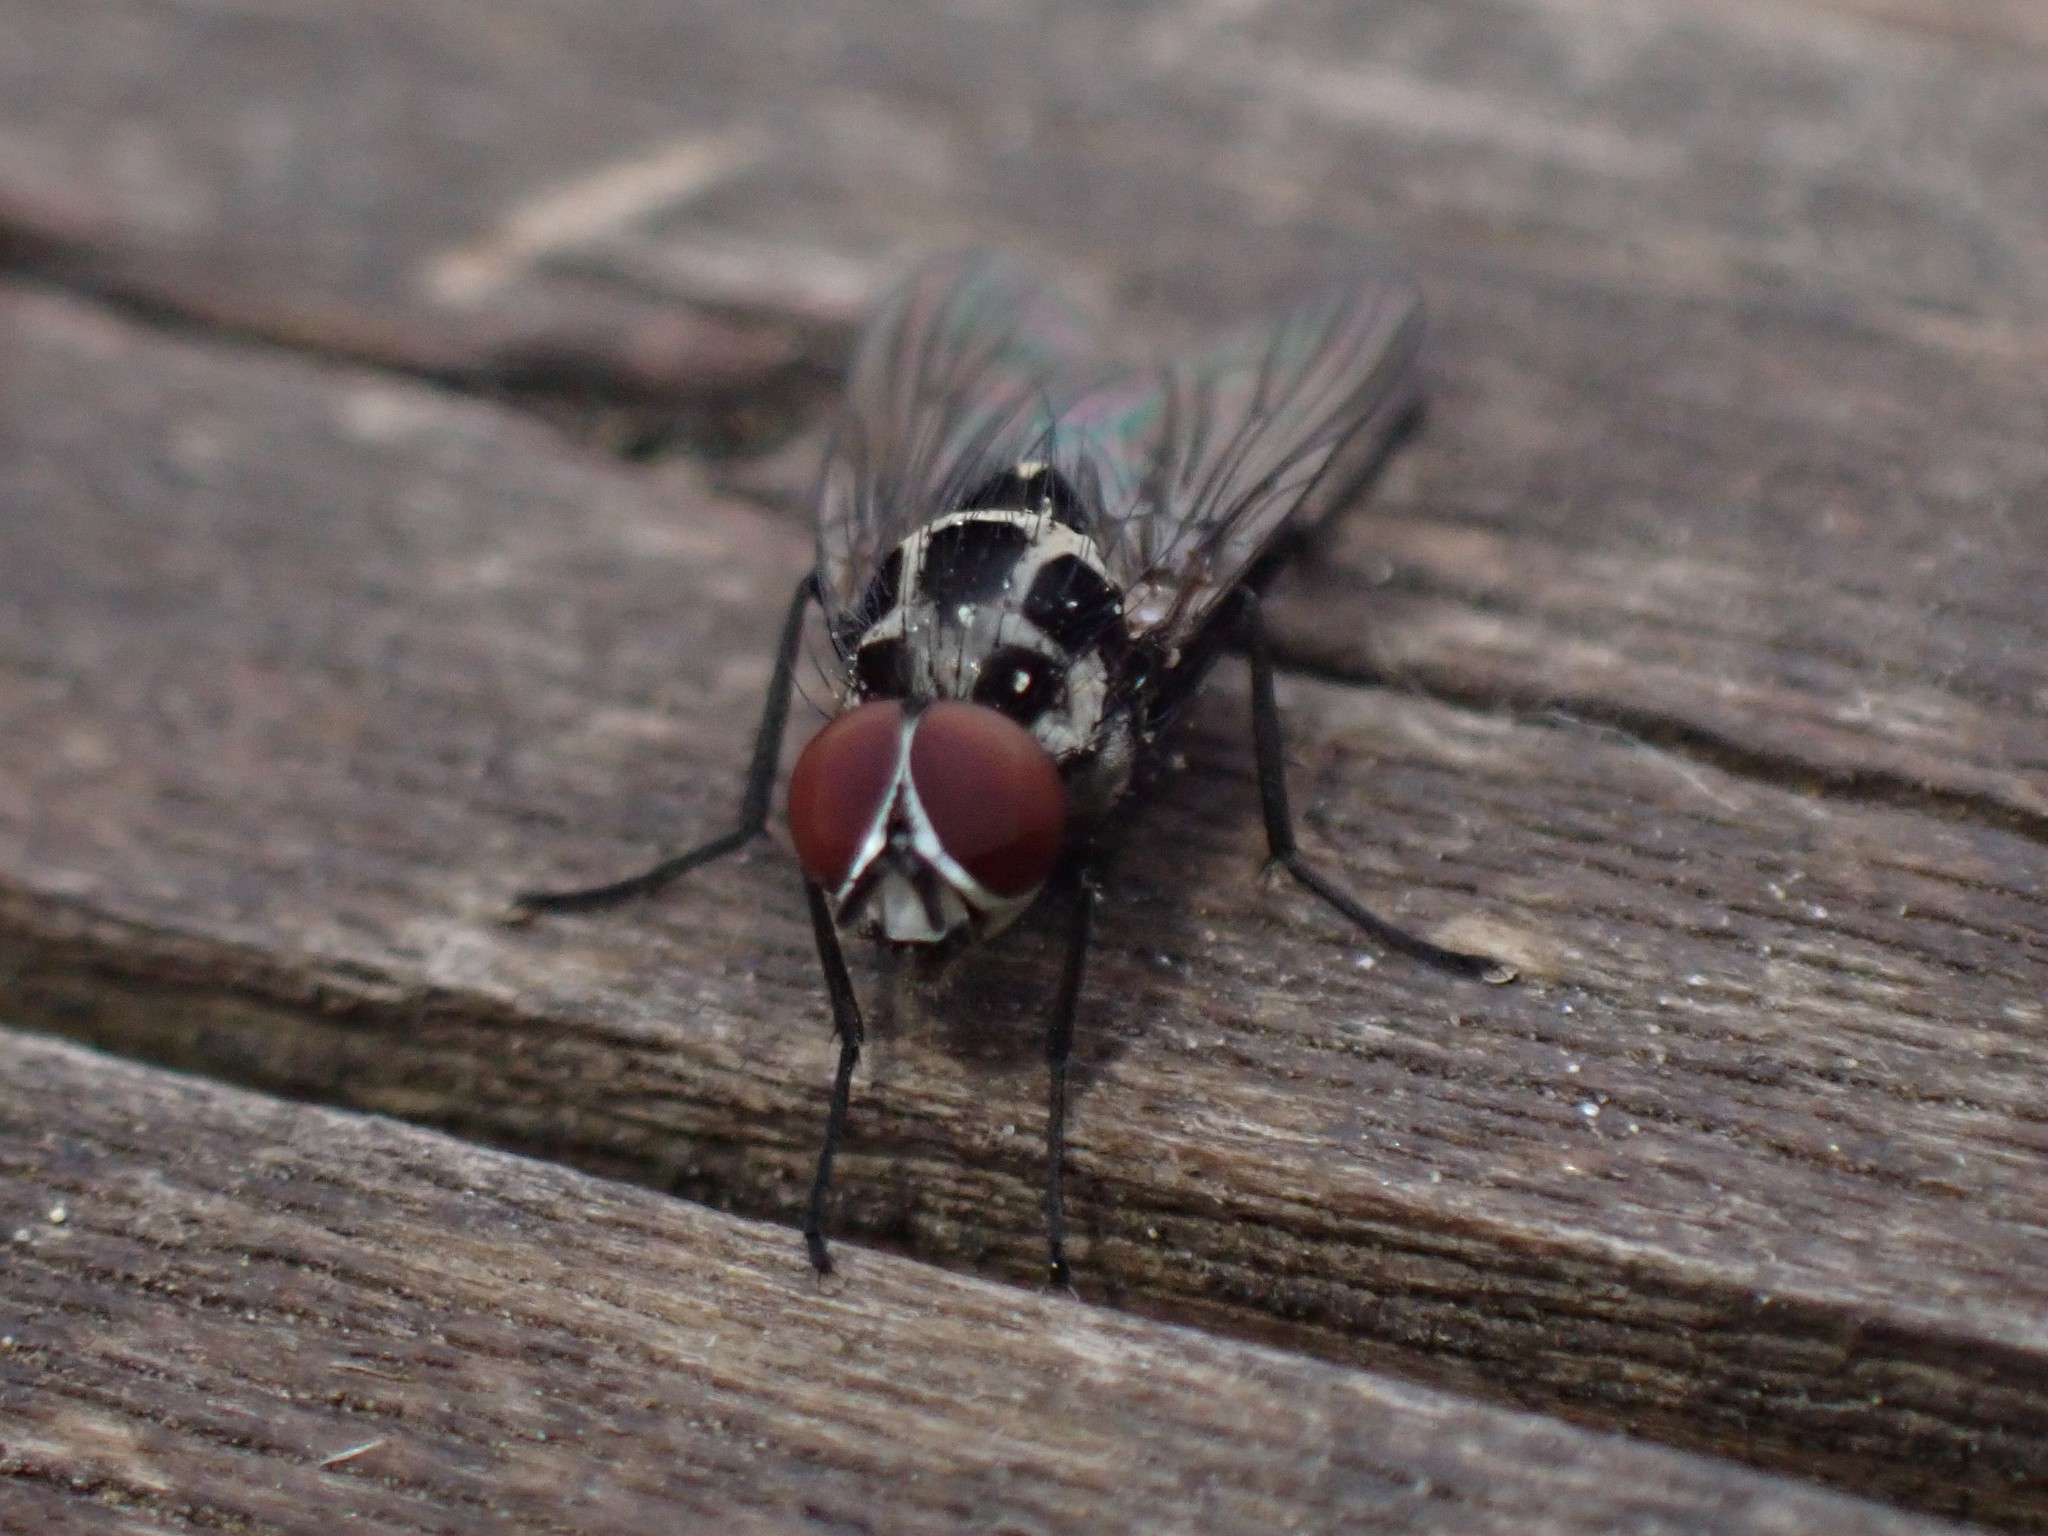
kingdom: Animalia
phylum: Arthropoda
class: Insecta
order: Diptera
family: Anthomyiidae
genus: Anthomyia
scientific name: Anthomyia procellaris
